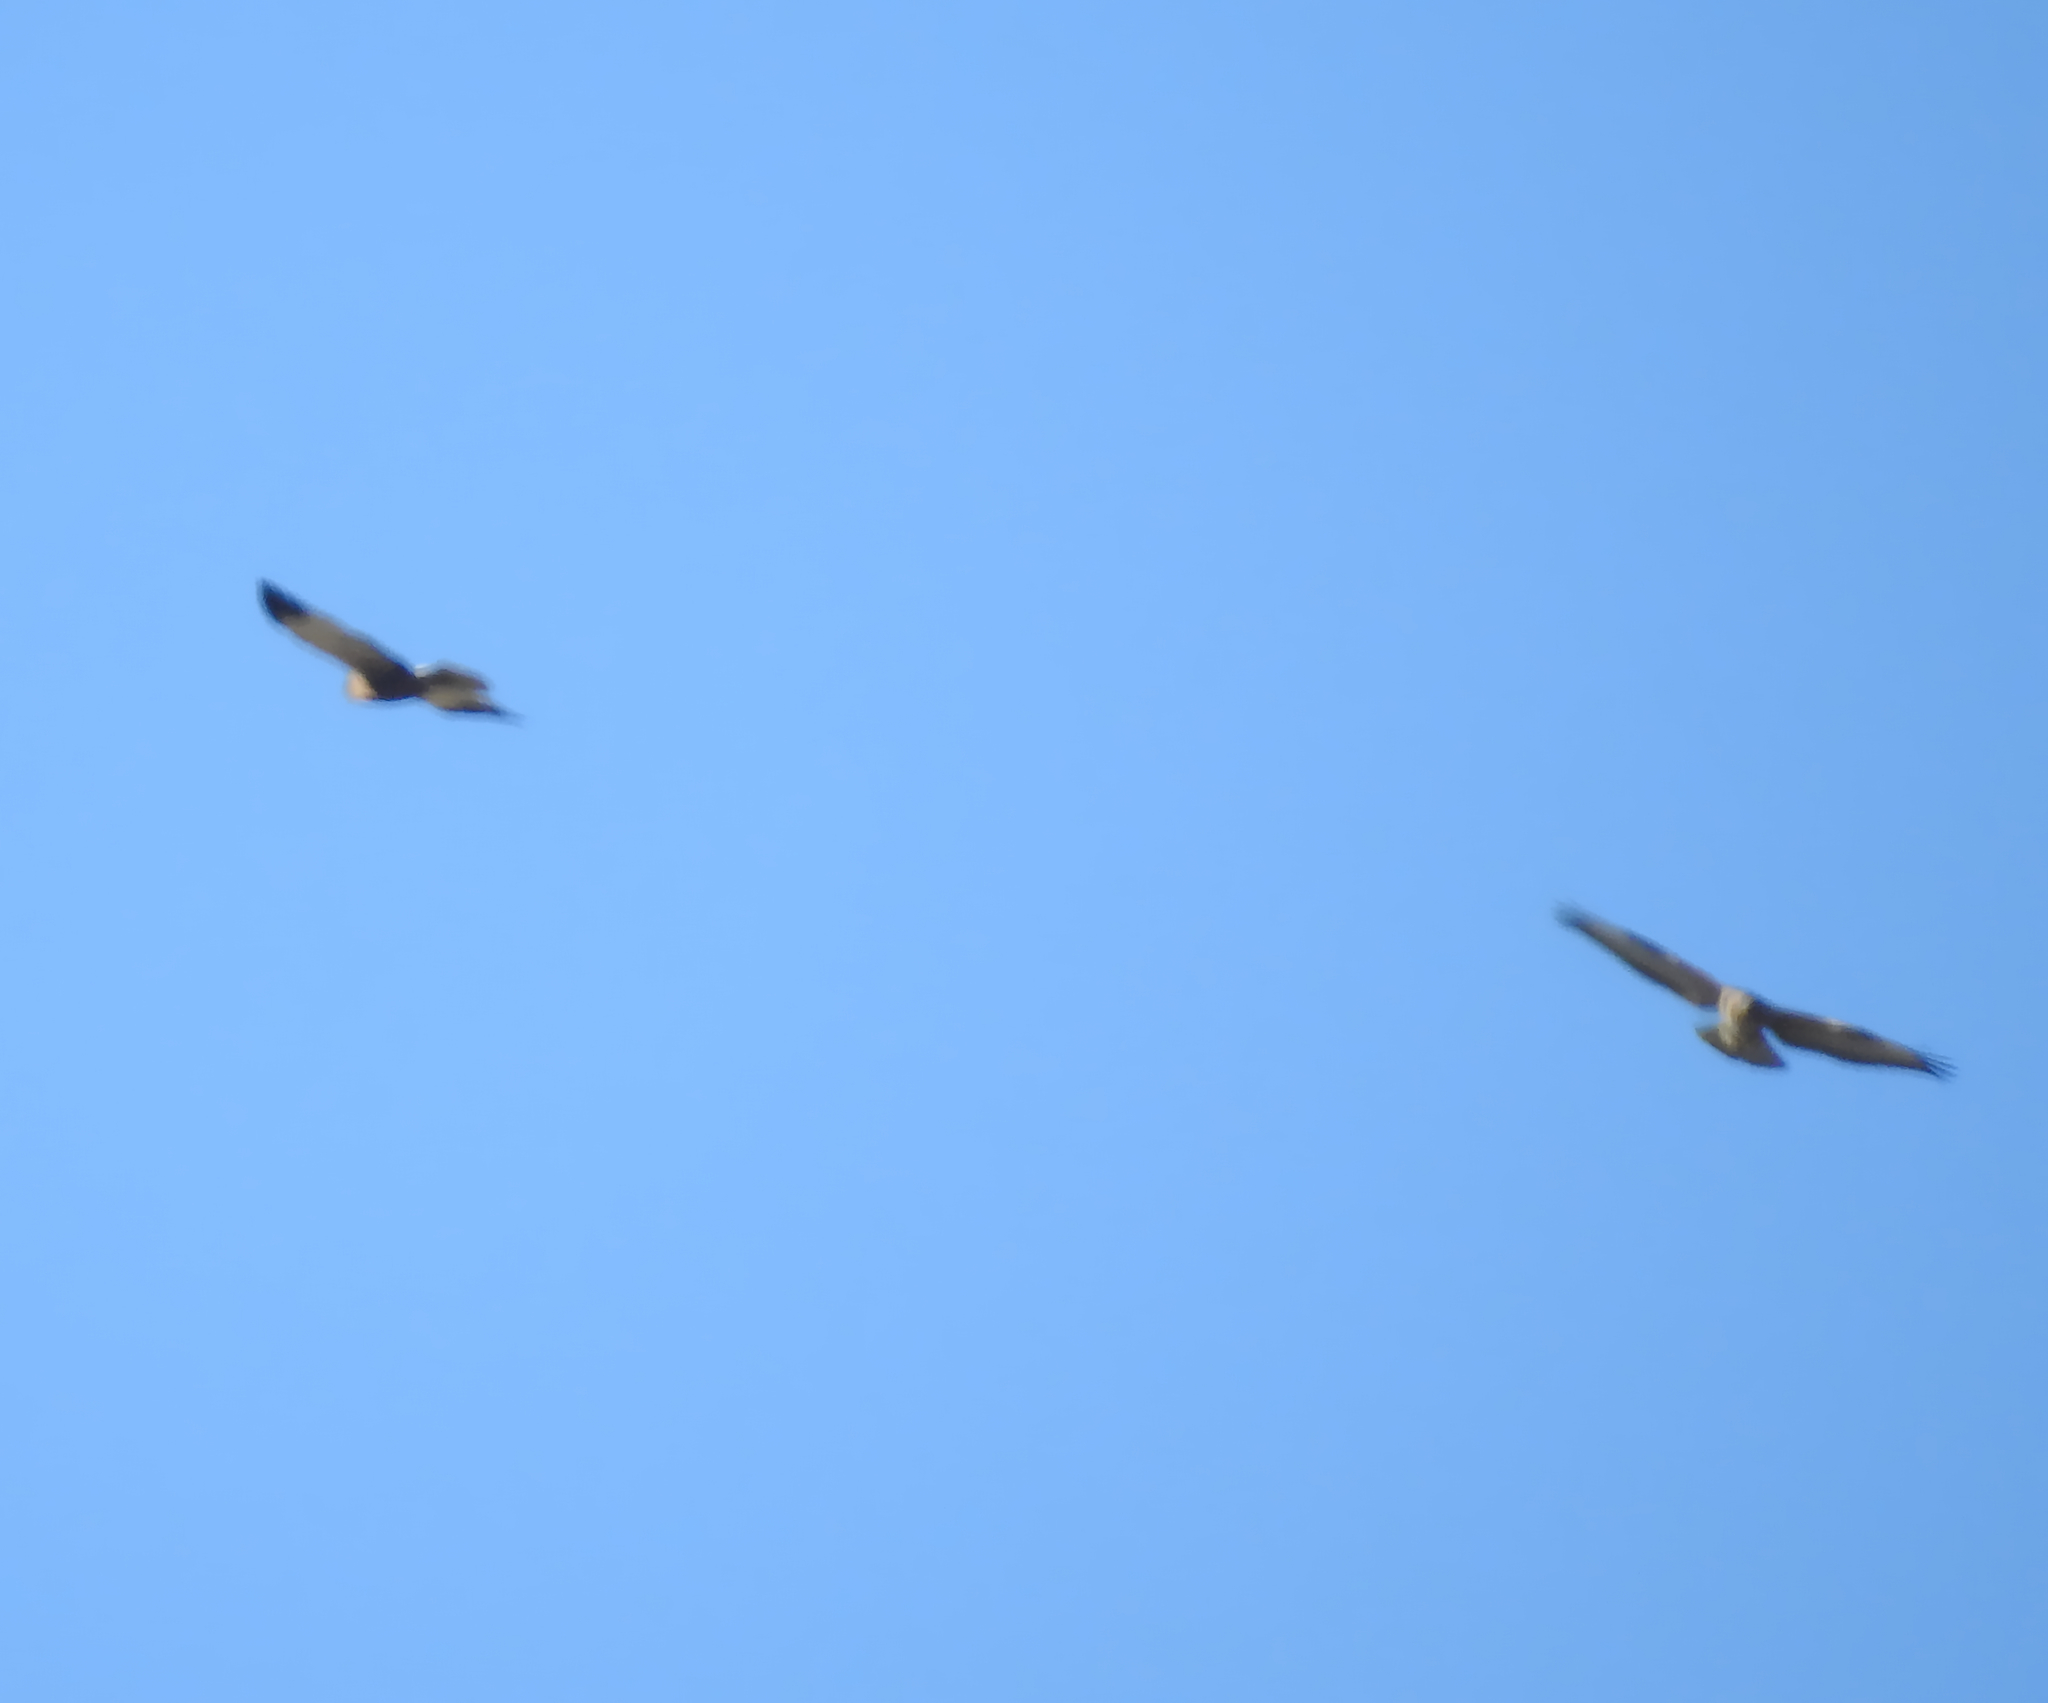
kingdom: Animalia
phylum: Chordata
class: Aves
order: Accipitriformes
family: Accipitridae
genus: Circus
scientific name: Circus aeruginosus
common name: Western marsh harrier
